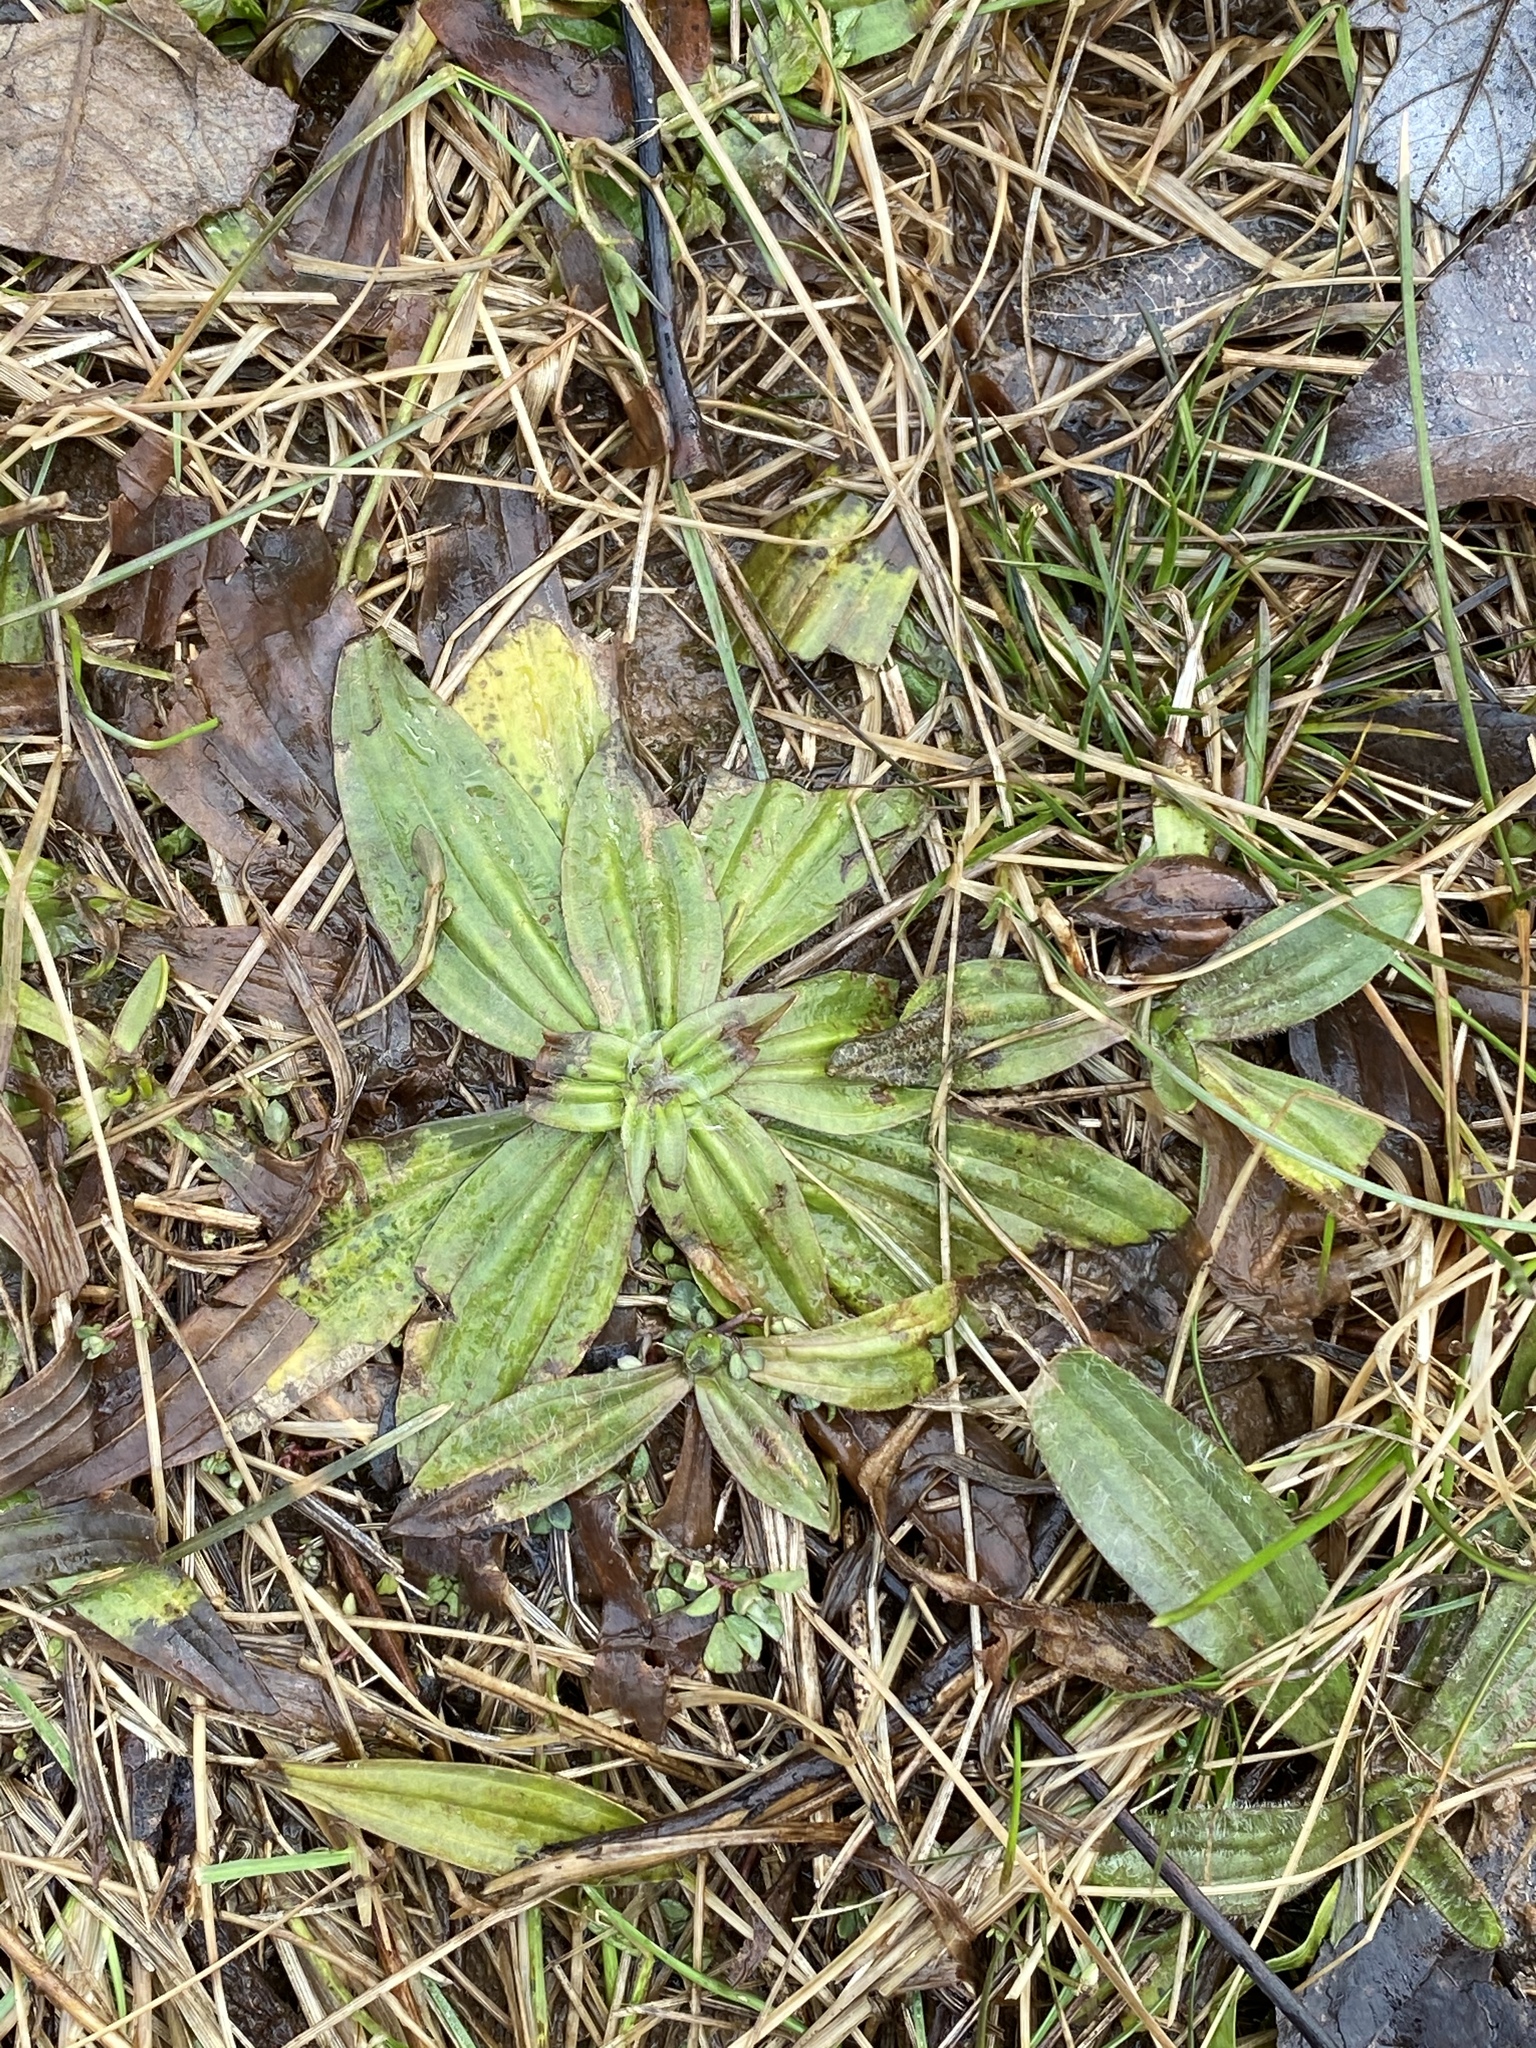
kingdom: Plantae
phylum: Tracheophyta
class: Magnoliopsida
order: Lamiales
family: Plantaginaceae
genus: Plantago
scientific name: Plantago lanceolata
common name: Ribwort plantain
